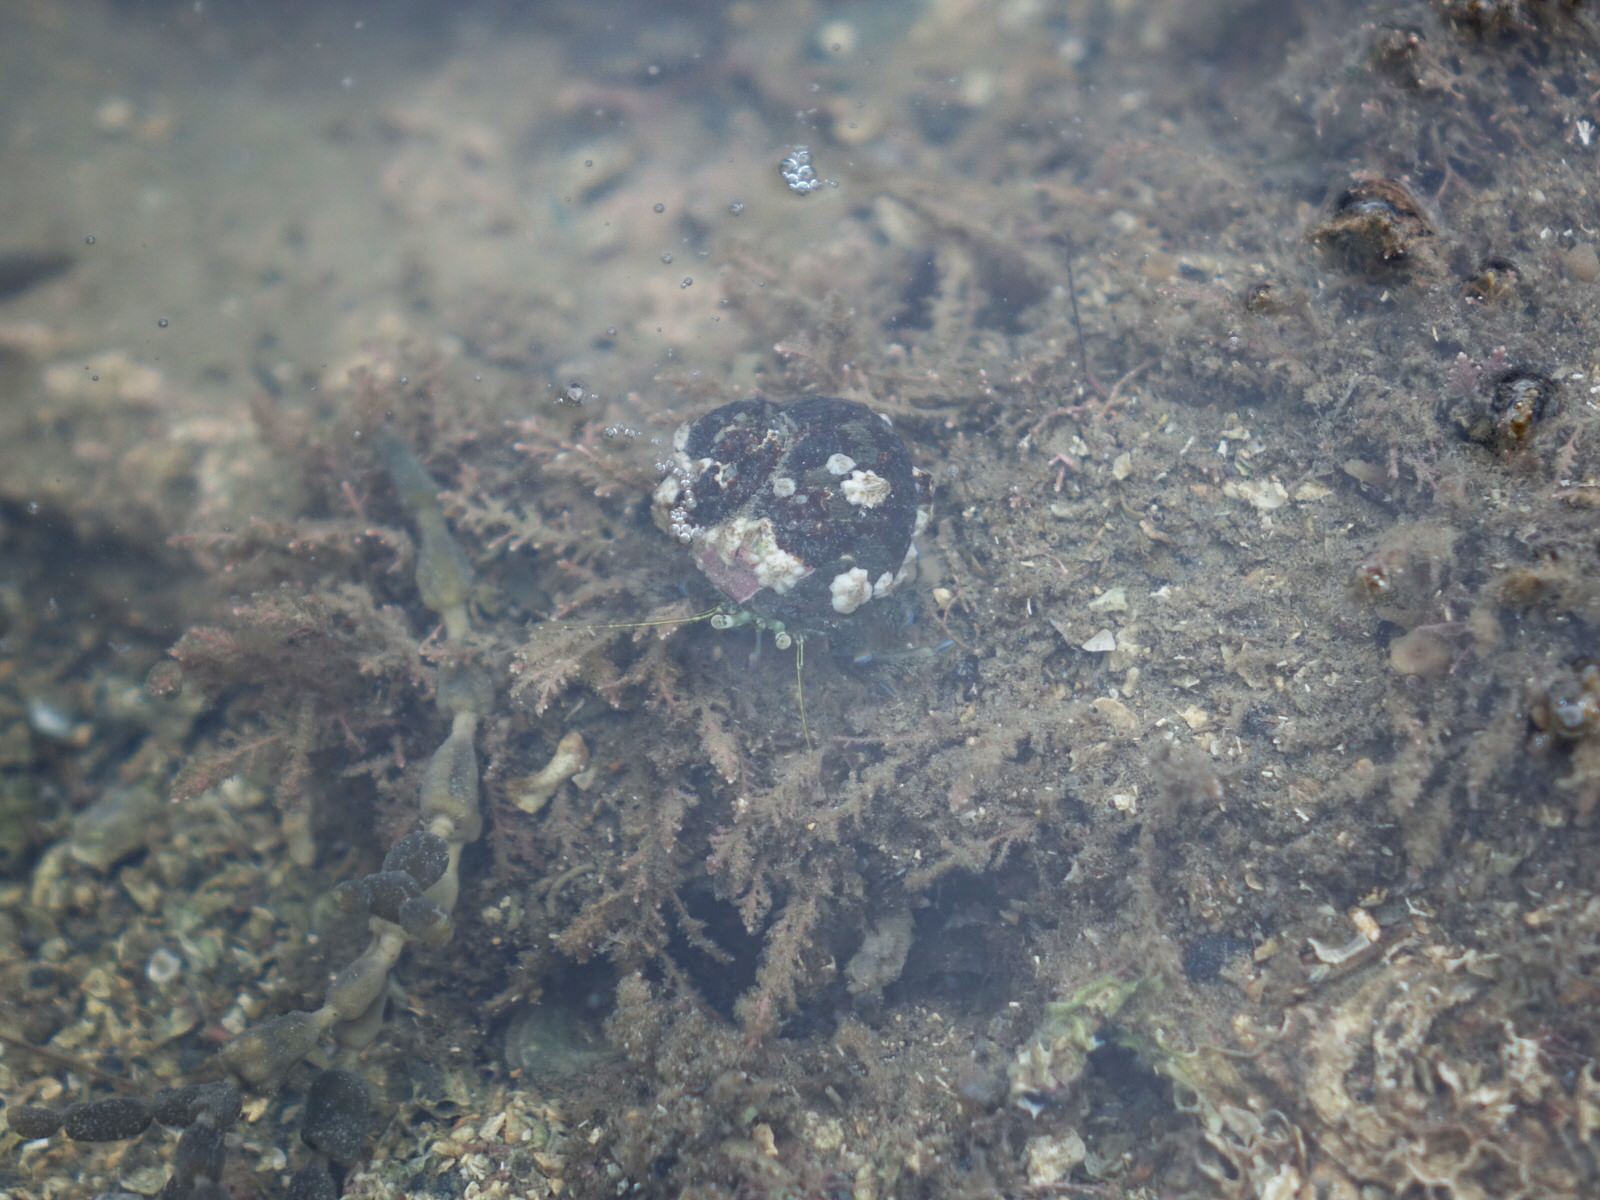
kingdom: Animalia
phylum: Arthropoda
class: Malacostraca
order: Decapoda
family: Paguridae
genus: Pagurus
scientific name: Pagurus novizealandiae
